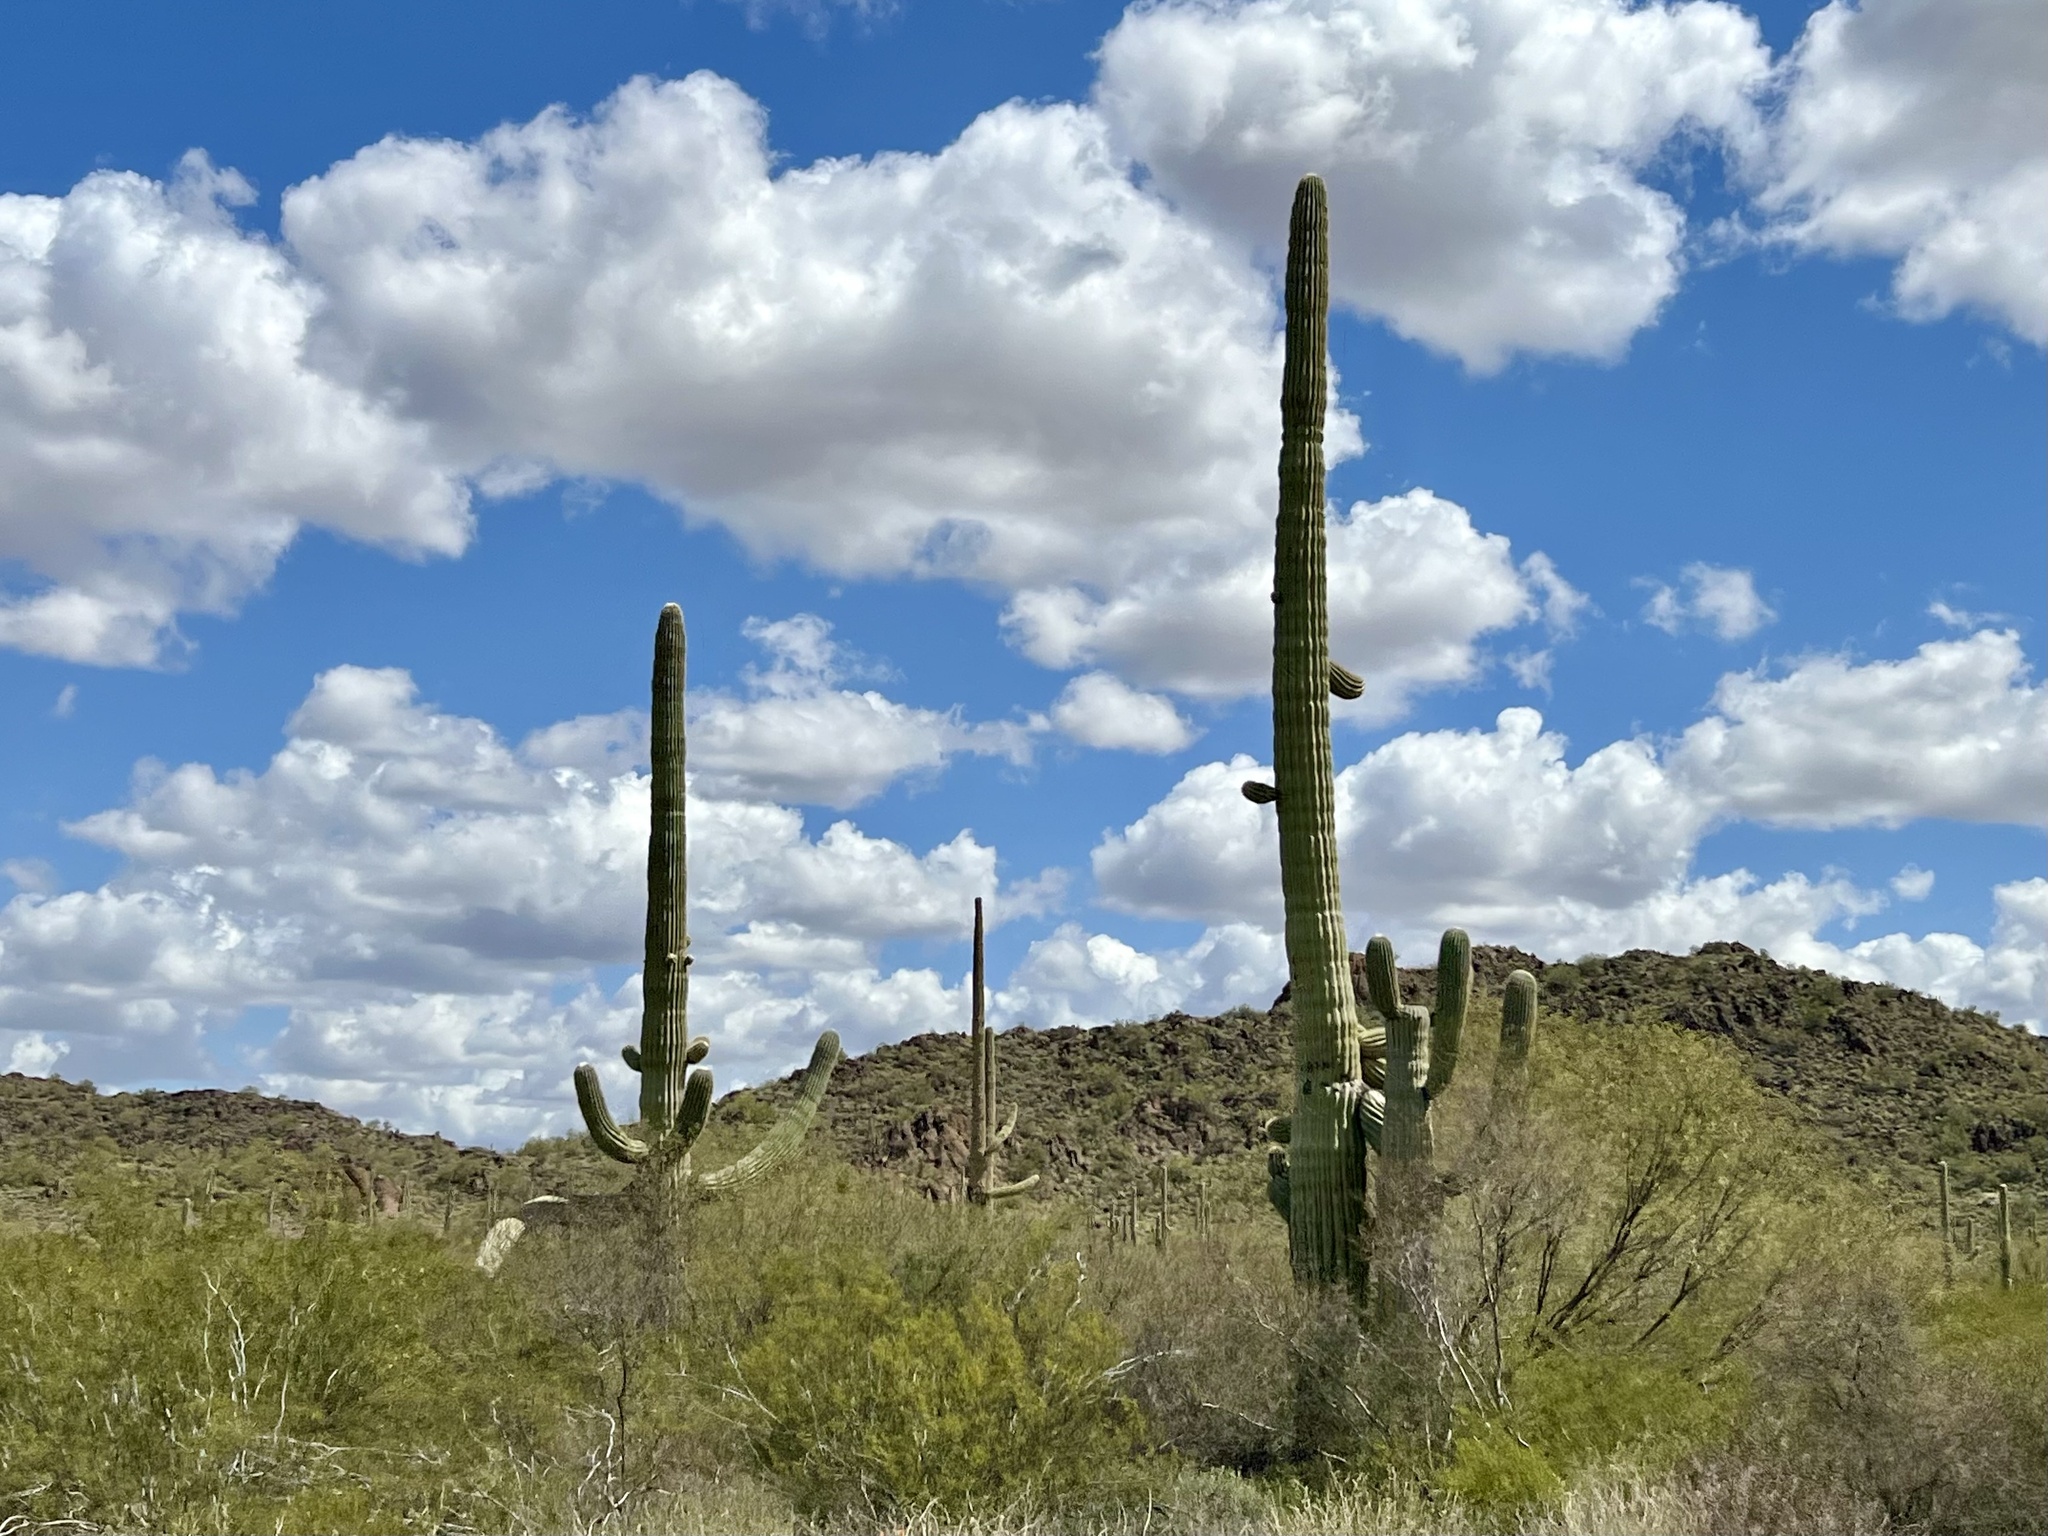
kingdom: Plantae
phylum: Tracheophyta
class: Magnoliopsida
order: Caryophyllales
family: Cactaceae
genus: Carnegiea
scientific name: Carnegiea gigantea
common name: Saguaro
